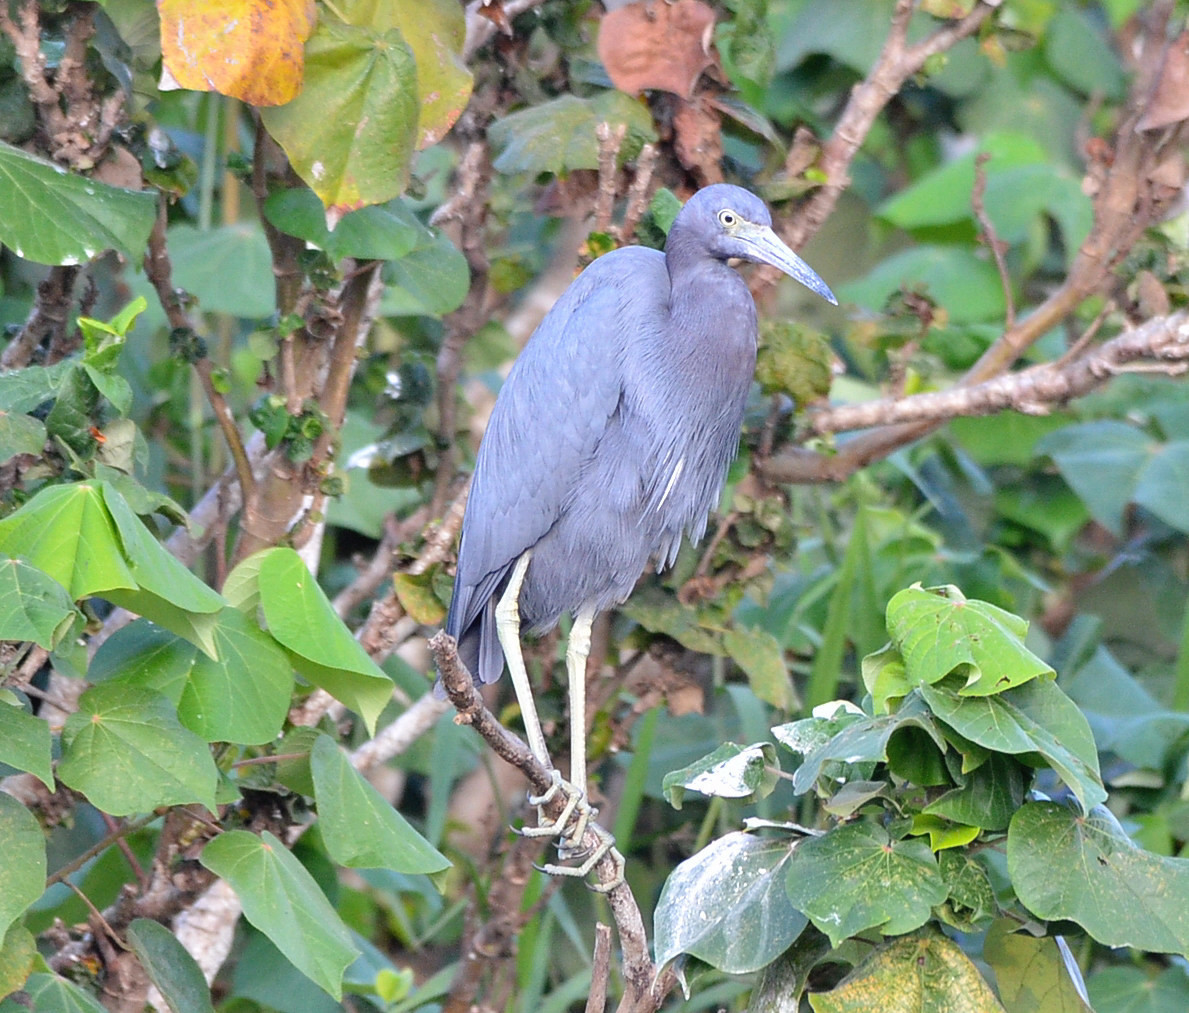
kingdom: Animalia
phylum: Chordata
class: Aves
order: Pelecaniformes
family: Ardeidae
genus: Egretta
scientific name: Egretta caerulea
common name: Little blue heron
